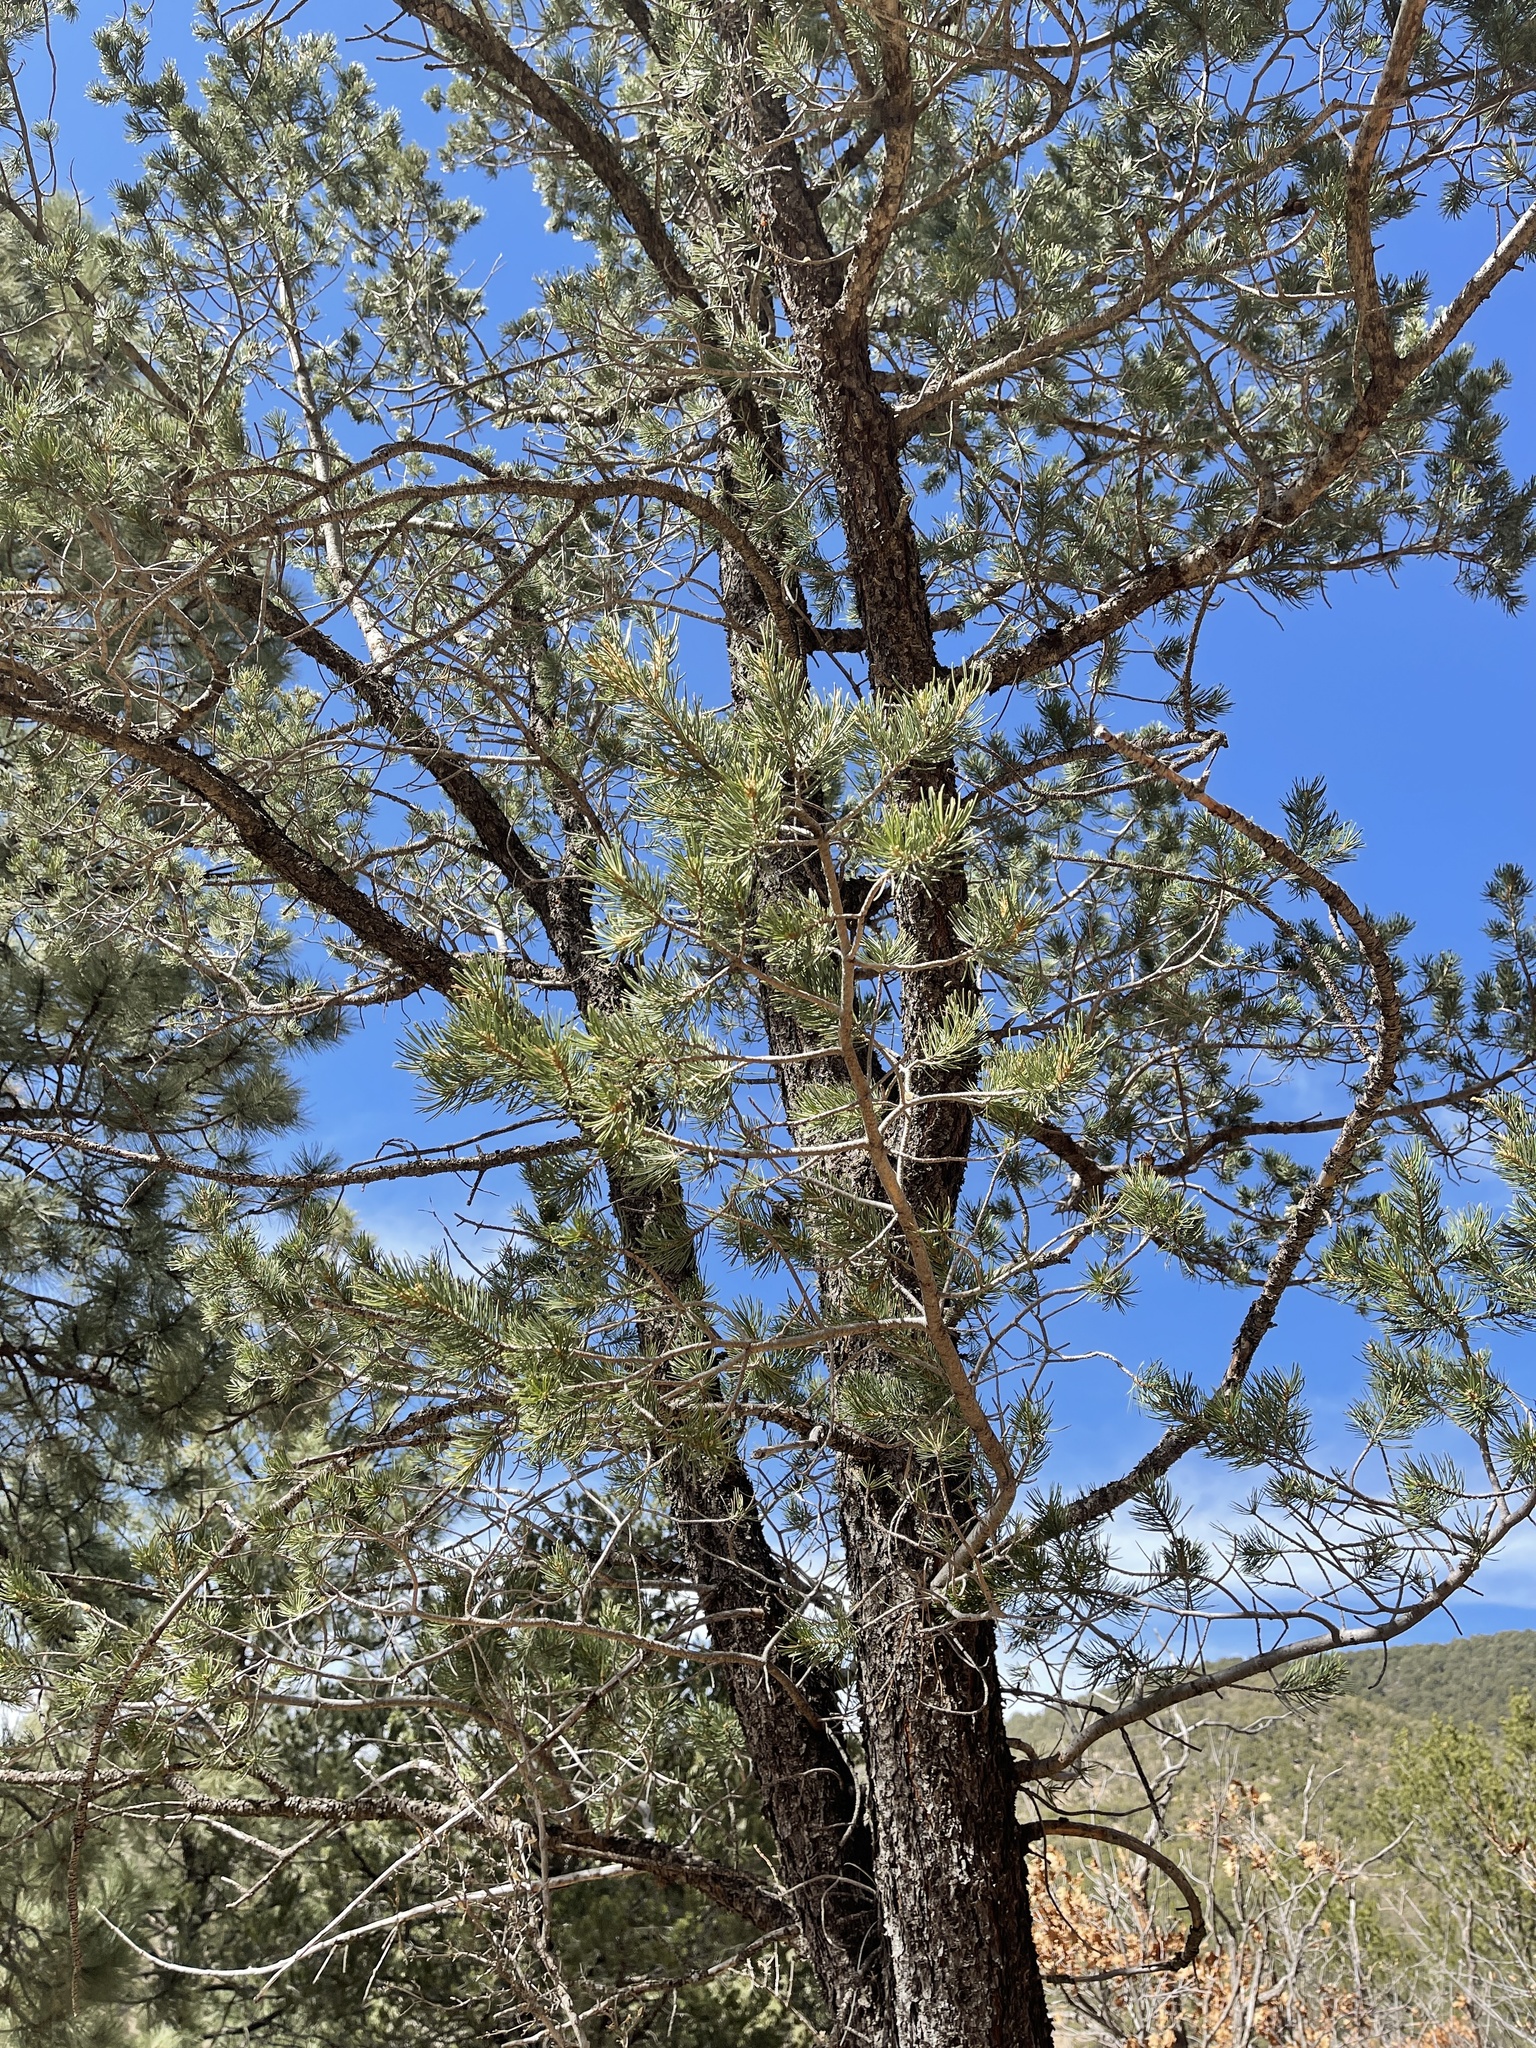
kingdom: Plantae
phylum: Tracheophyta
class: Pinopsida
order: Pinales
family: Pinaceae
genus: Pinus
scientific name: Pinus edulis
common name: Colorado pinyon
